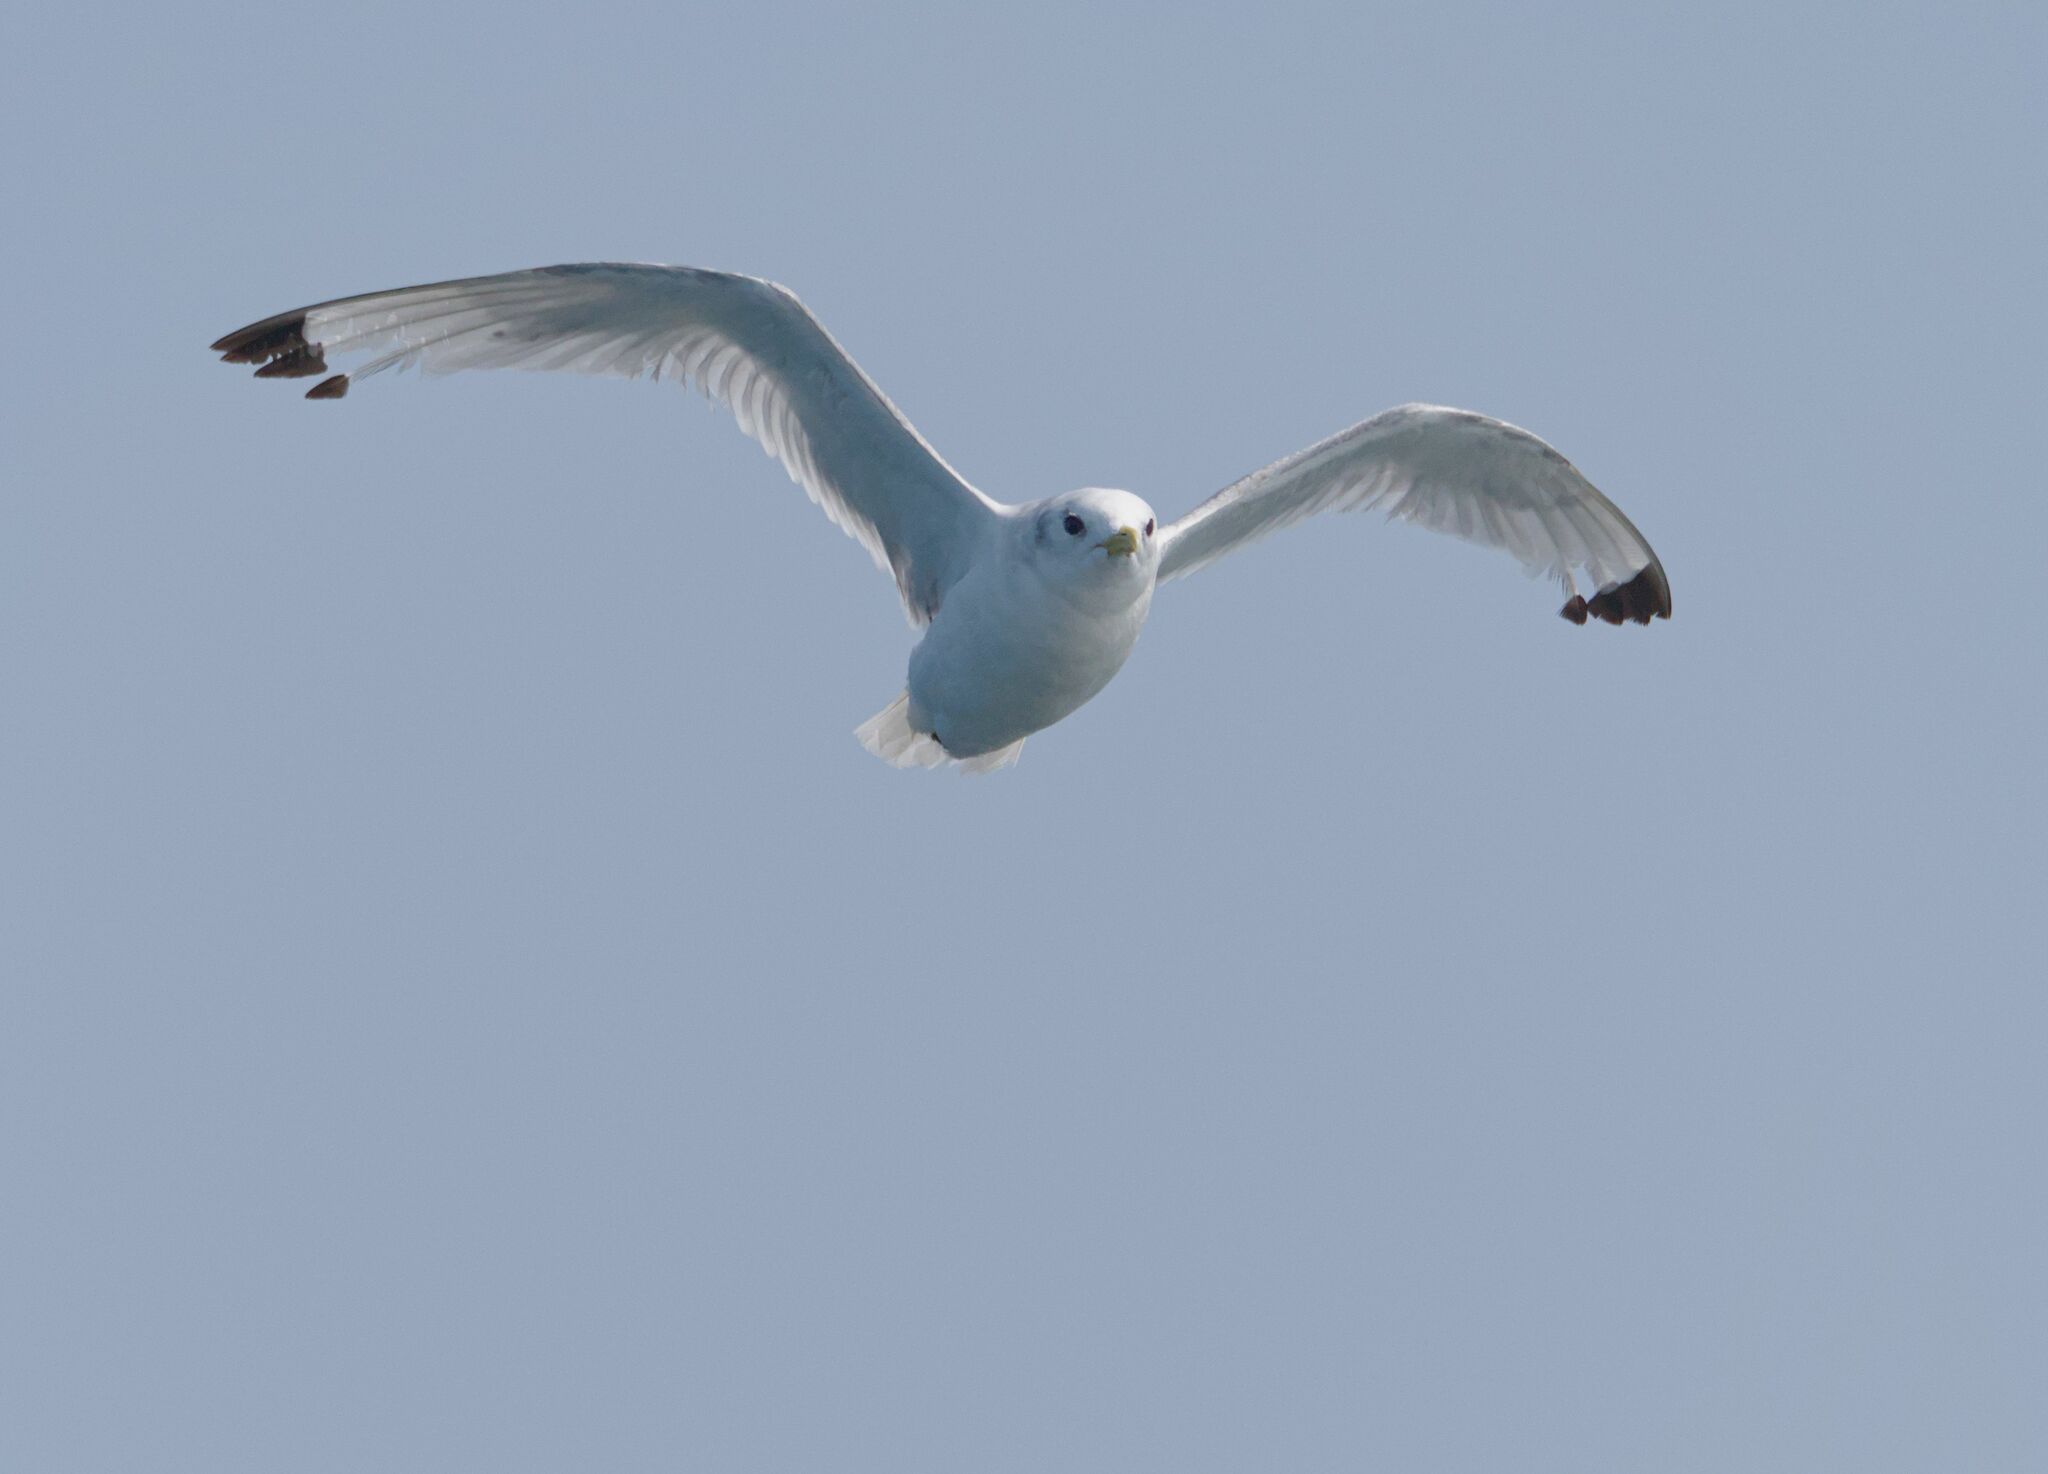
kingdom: Animalia
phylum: Chordata
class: Aves
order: Charadriiformes
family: Laridae
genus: Rissa
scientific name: Rissa tridactyla
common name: Black-legged kittiwake
